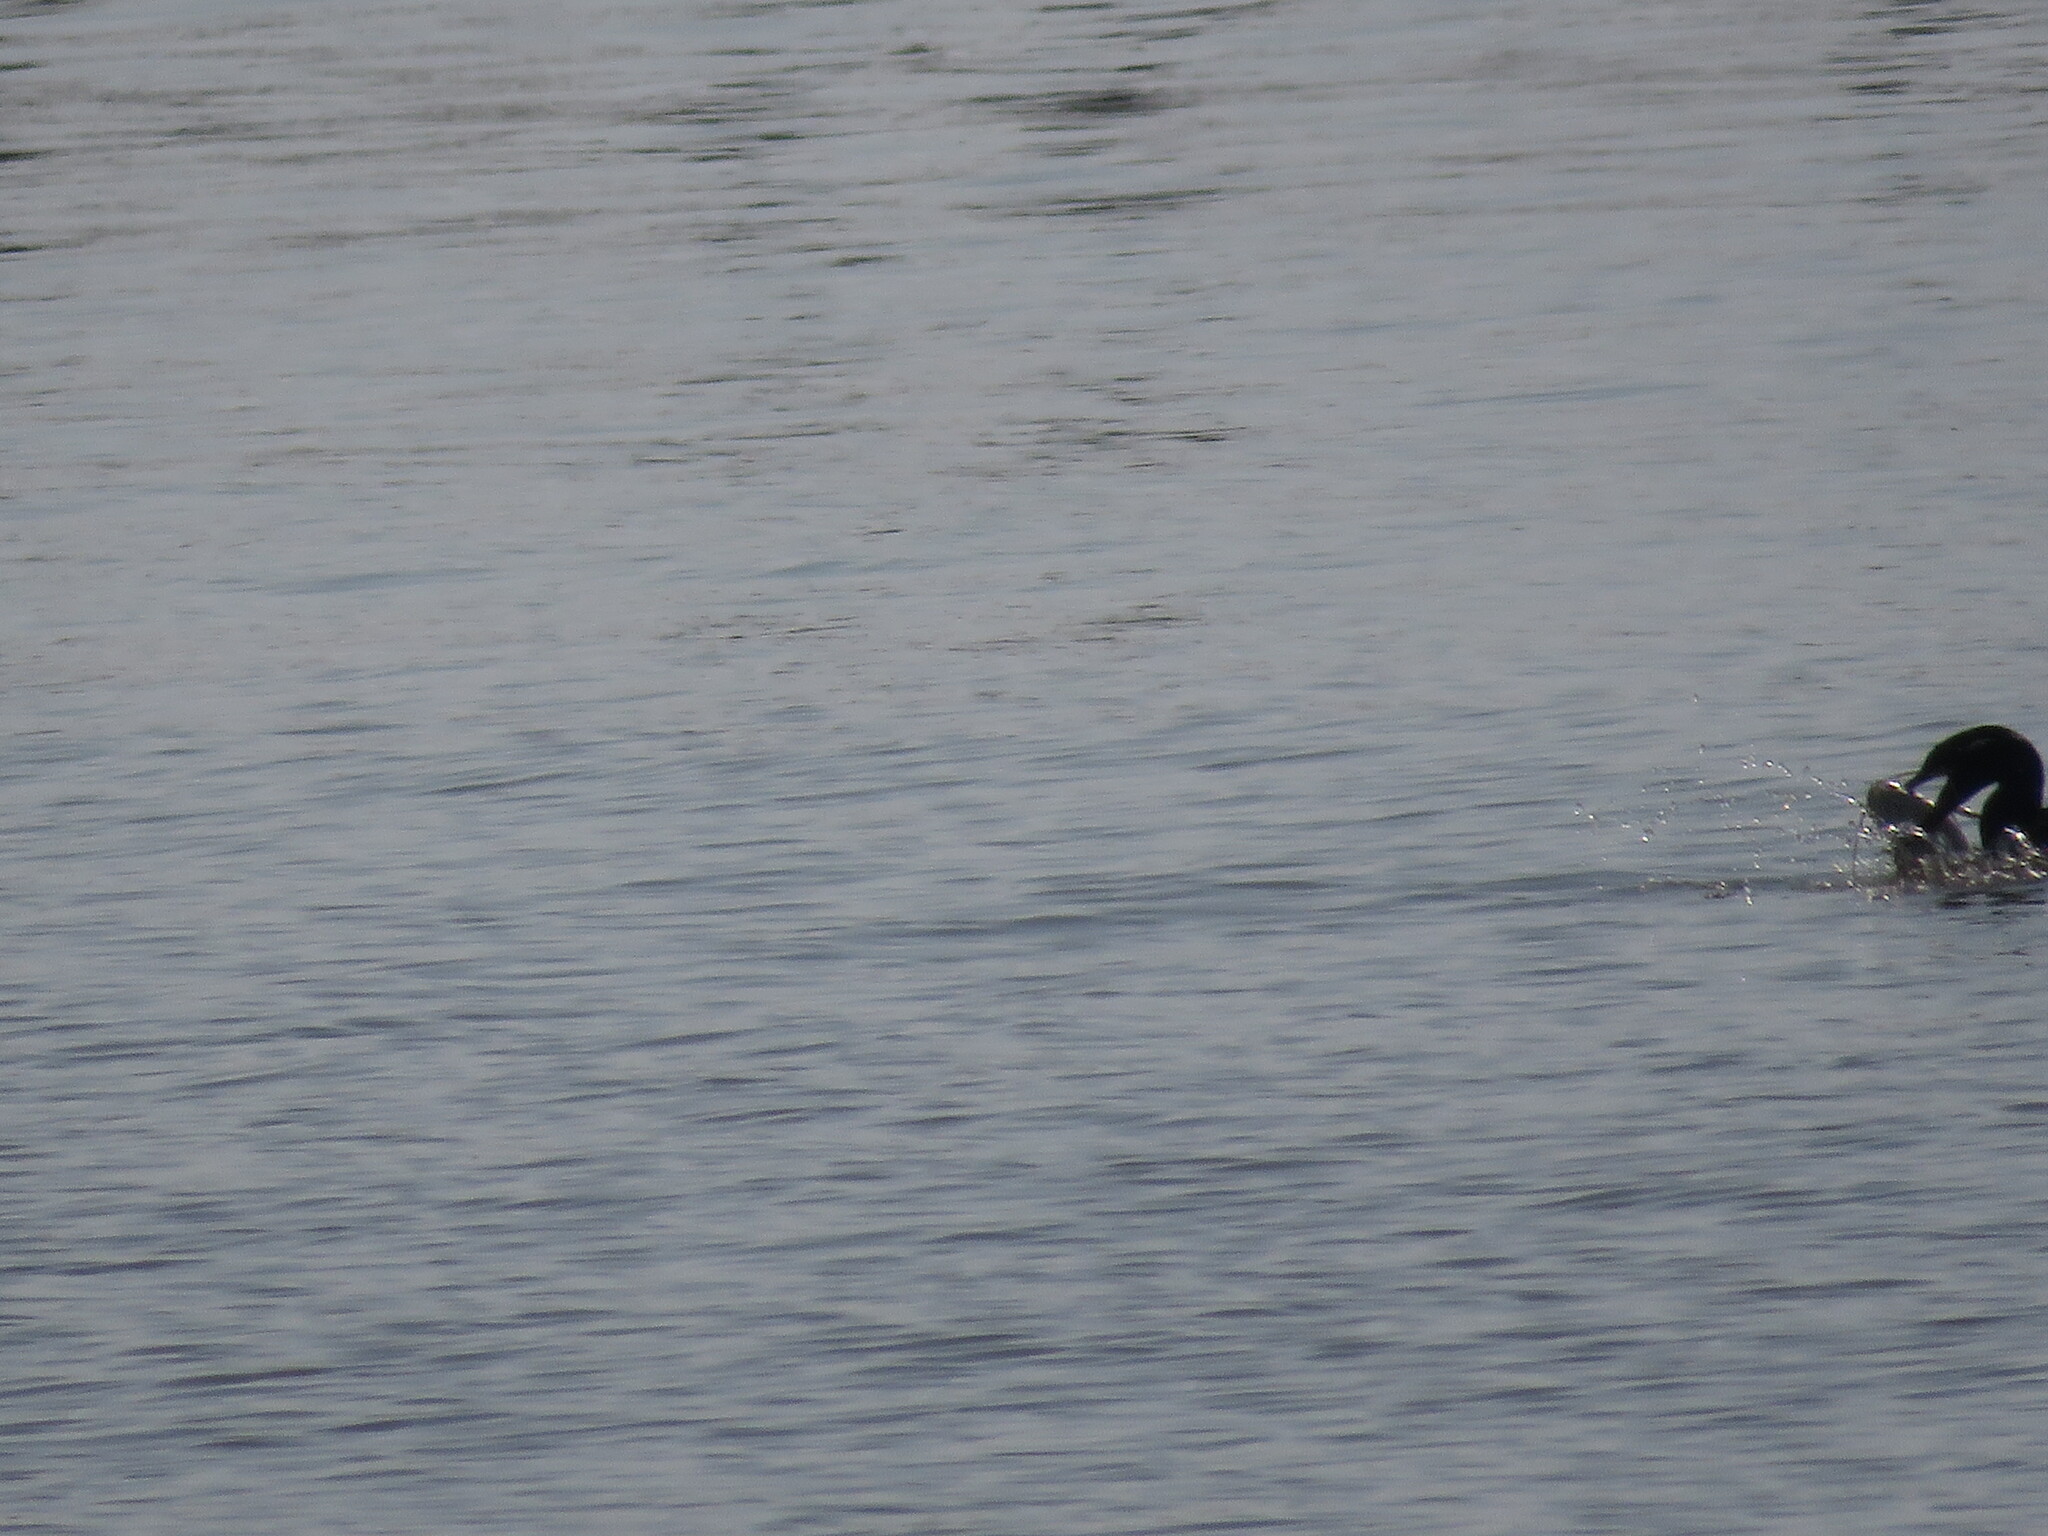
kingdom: Animalia
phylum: Chordata
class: Aves
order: Suliformes
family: Phalacrocoracidae
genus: Phalacrocorax
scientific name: Phalacrocorax brasilianus
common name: Neotropic cormorant
